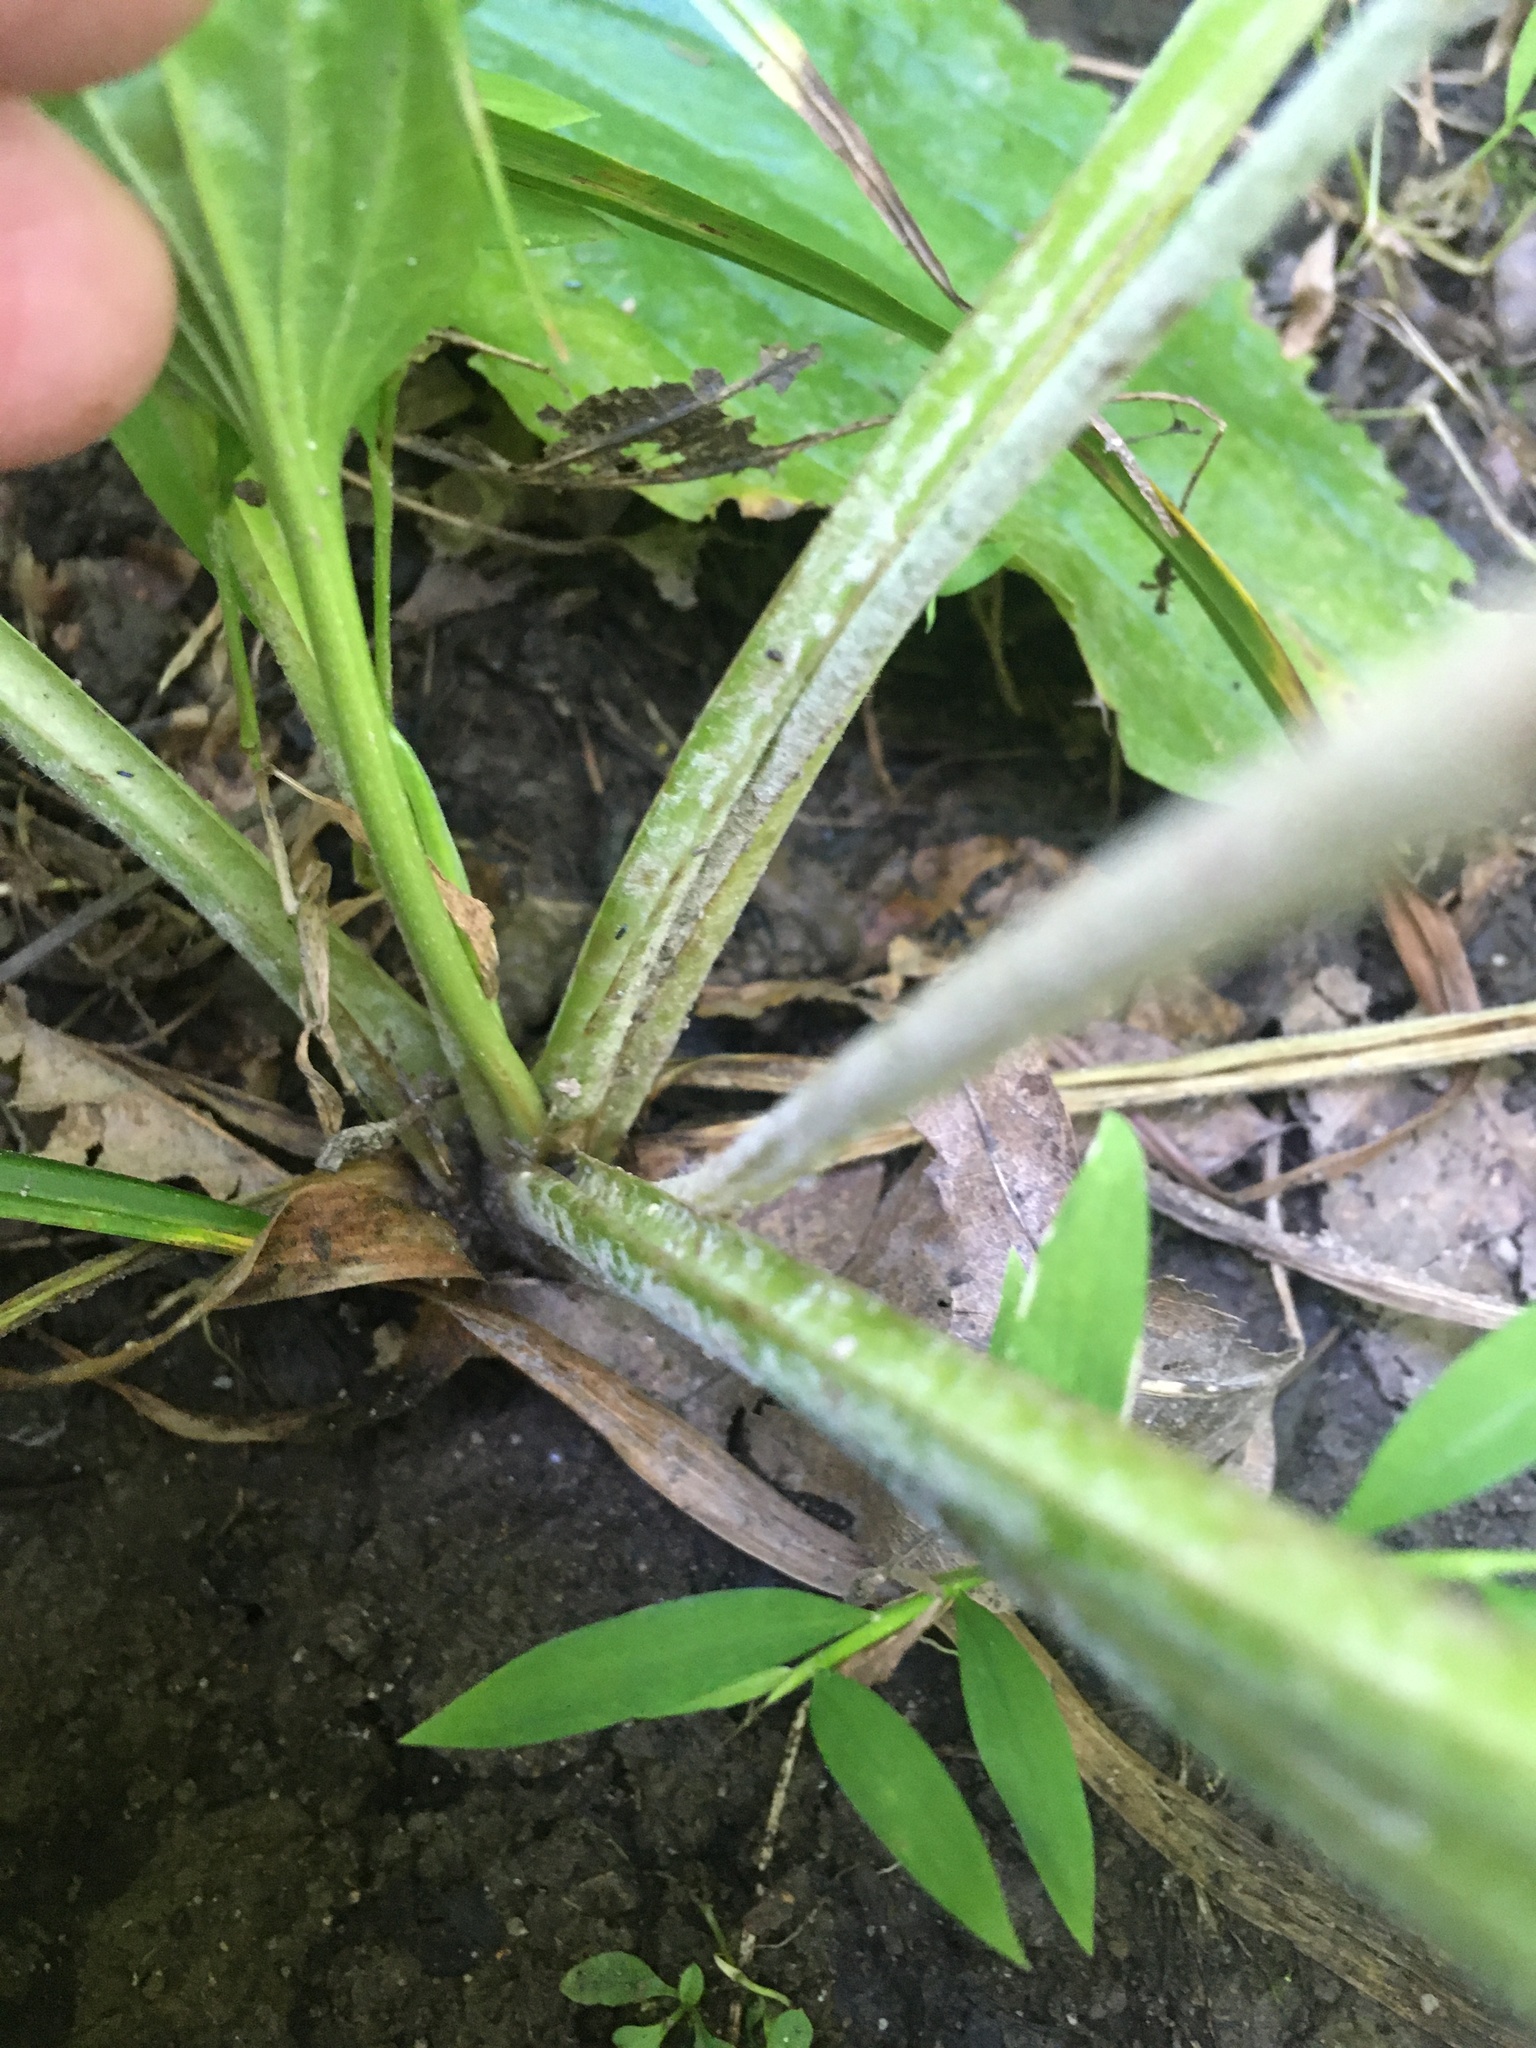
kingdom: Plantae
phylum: Tracheophyta
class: Magnoliopsida
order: Lamiales
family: Plantaginaceae
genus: Plantago
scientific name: Plantago major
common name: Common plantain
